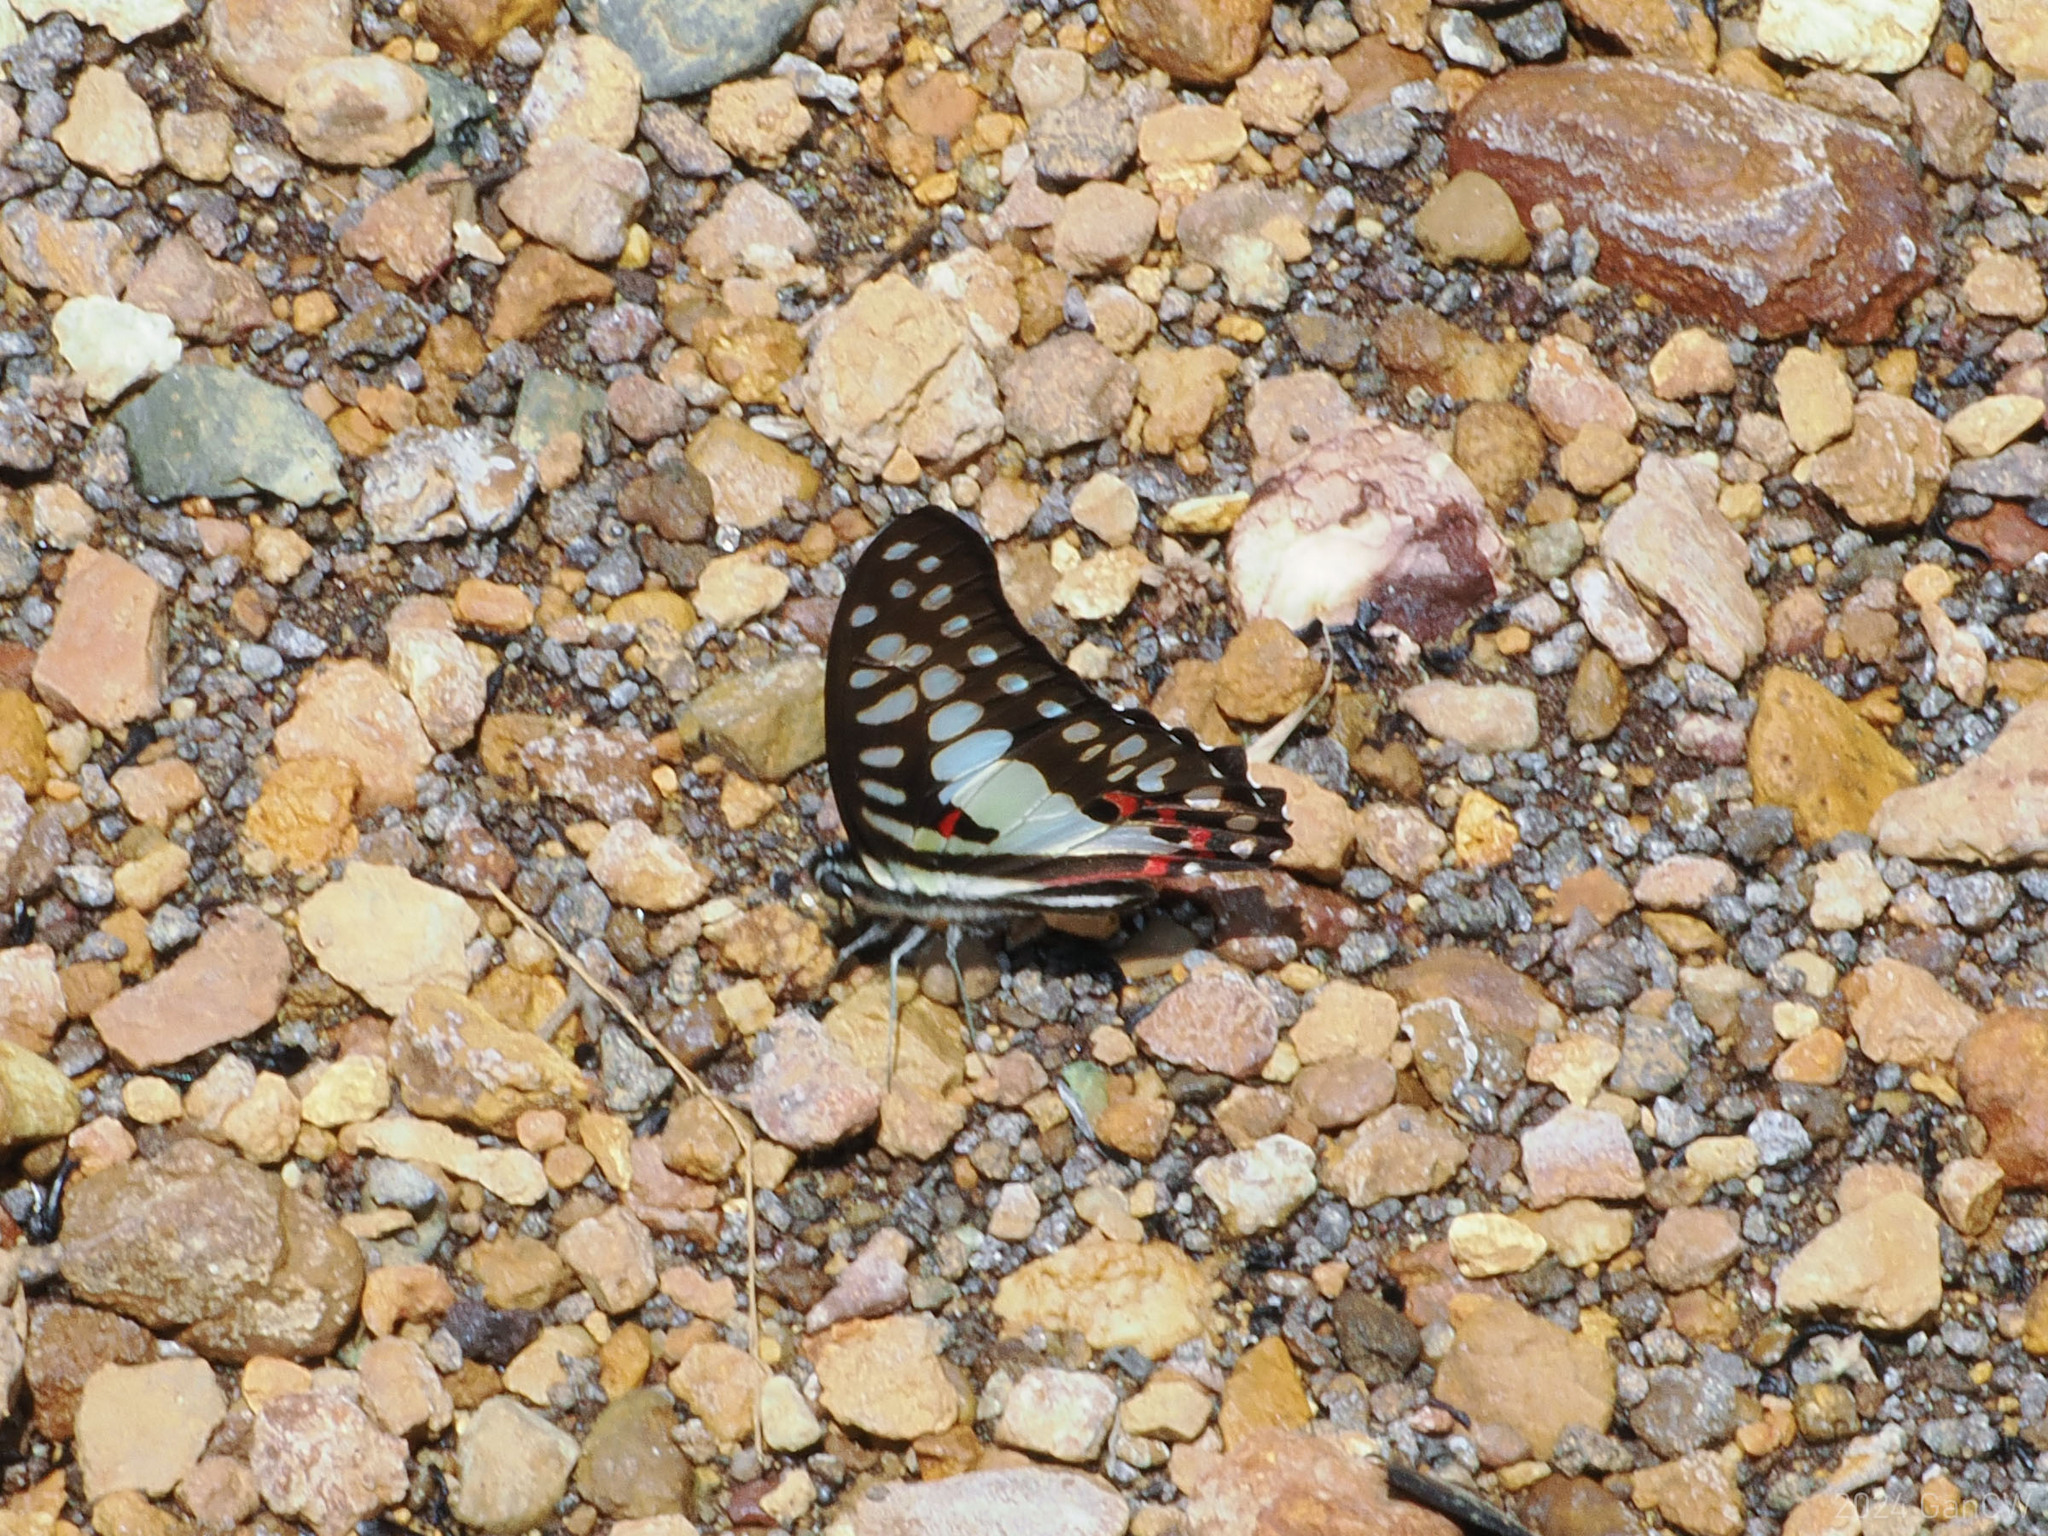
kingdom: Animalia
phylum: Arthropoda
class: Insecta
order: Lepidoptera
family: Papilionidae
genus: Graphium
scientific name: Graphium doson
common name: Common jay
